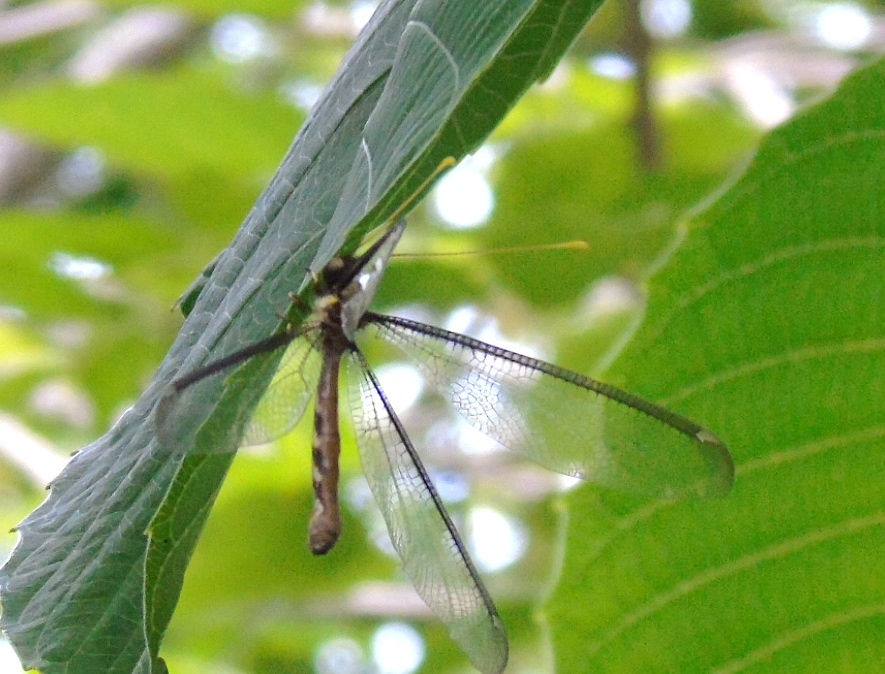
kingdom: Animalia
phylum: Arthropoda
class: Insecta
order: Neuroptera
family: Ascalaphidae
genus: Haploglenius
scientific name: Haploglenius flavicornis
